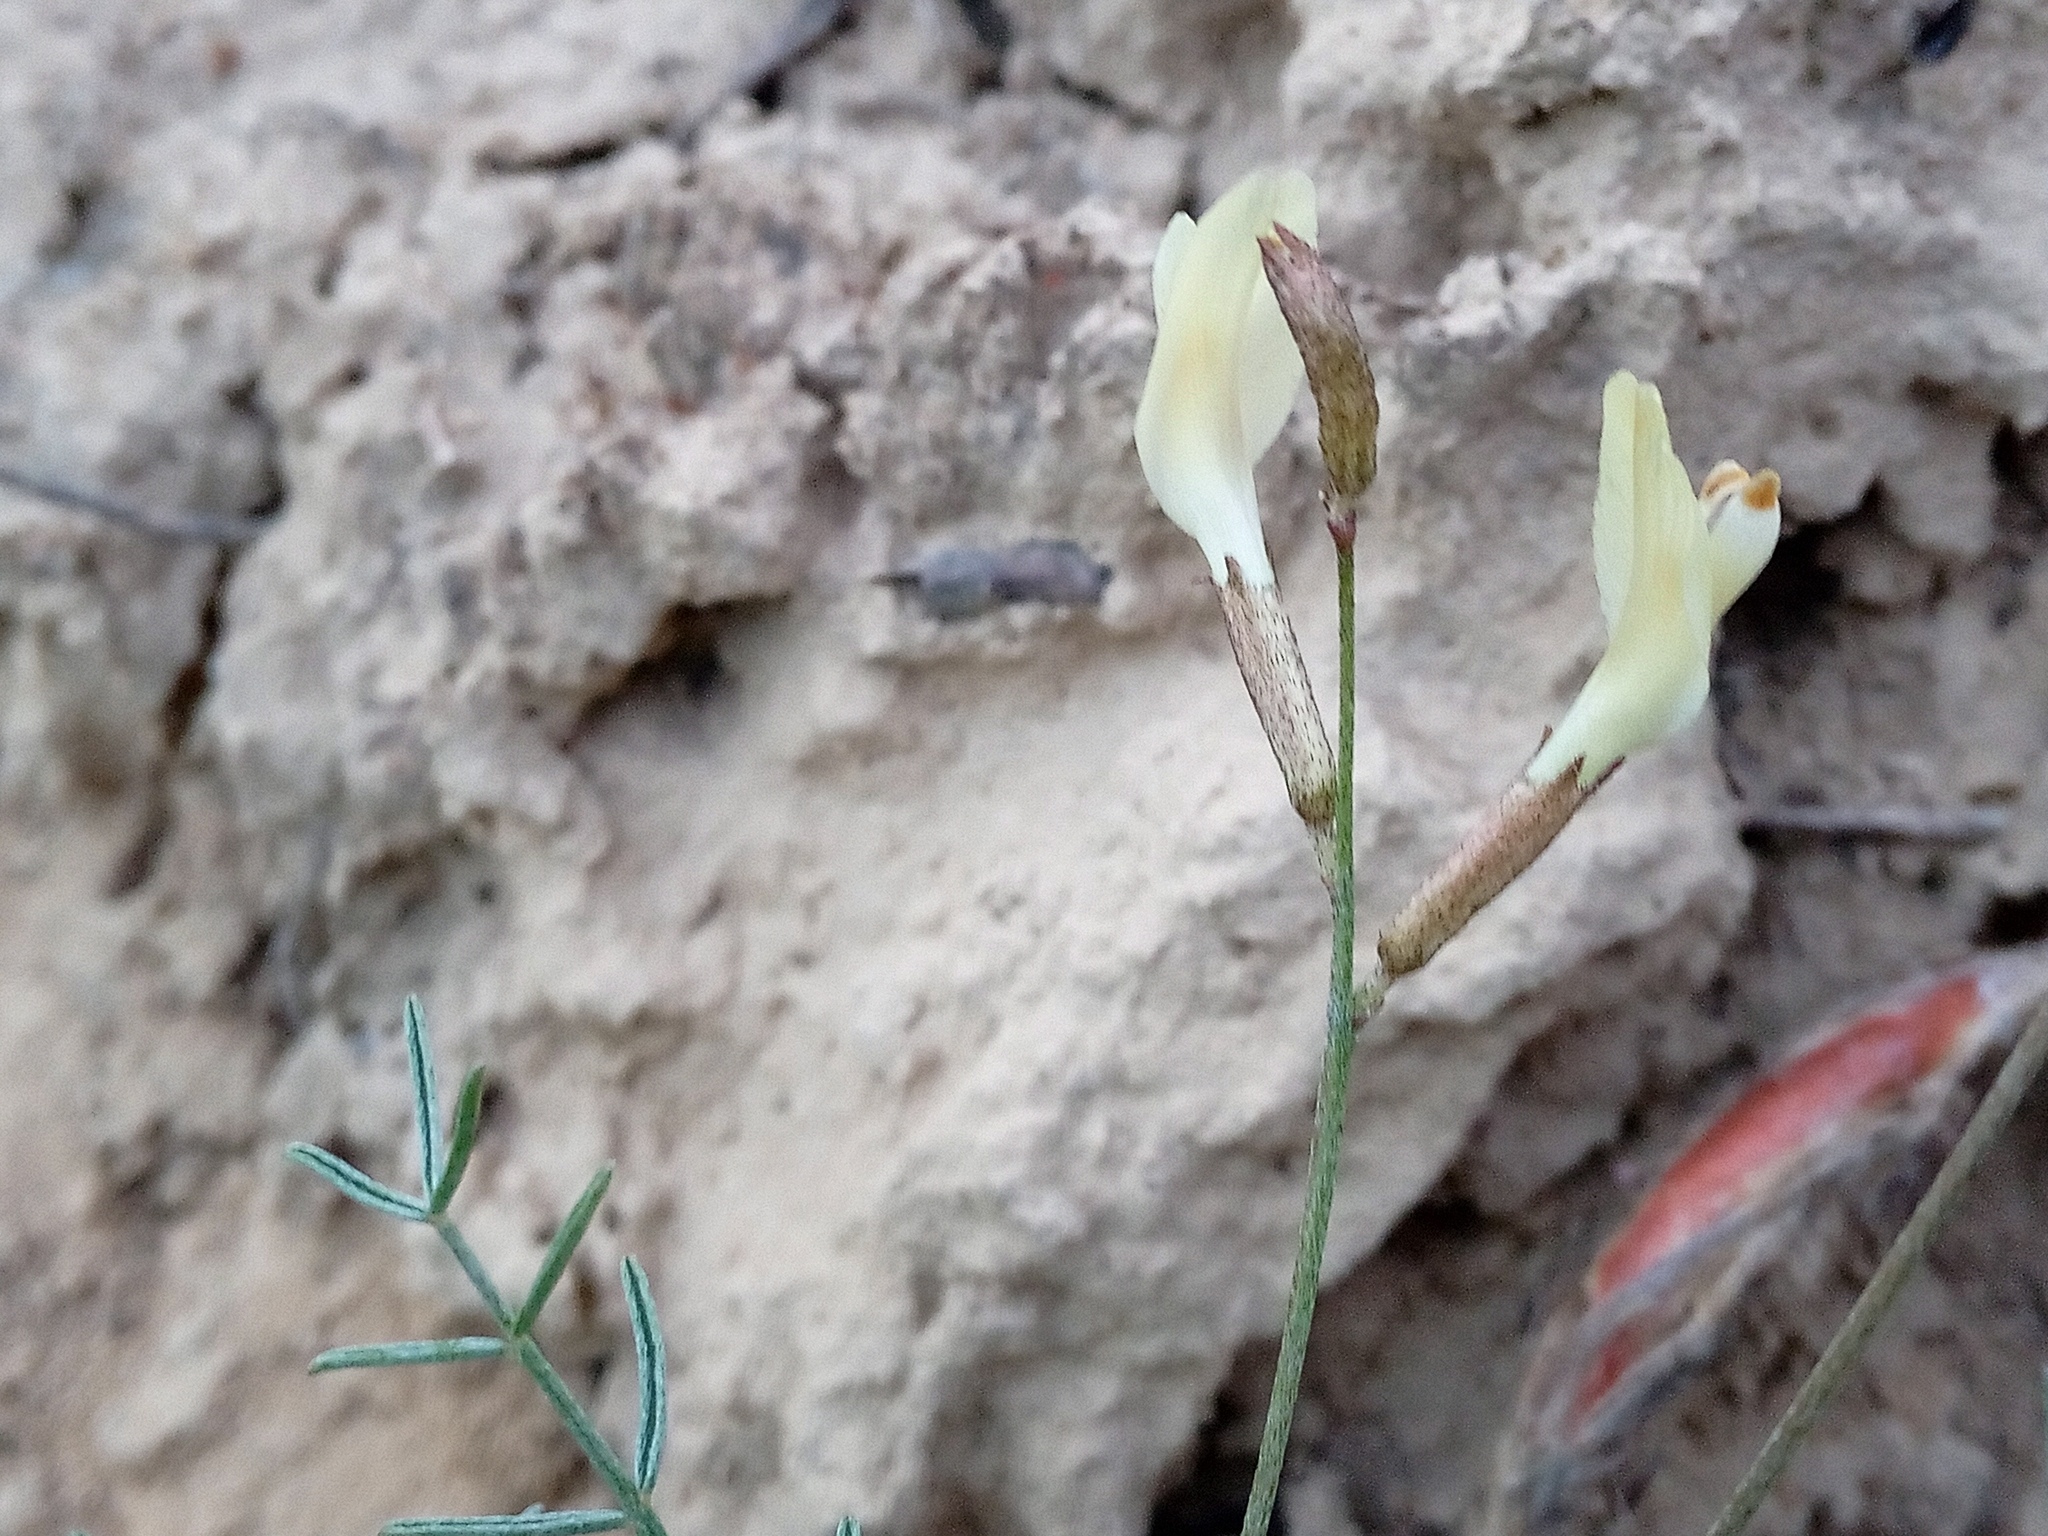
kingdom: Plantae
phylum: Tracheophyta
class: Magnoliopsida
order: Fabales
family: Fabaceae
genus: Astragalus
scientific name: Astragalus ucrainicus
